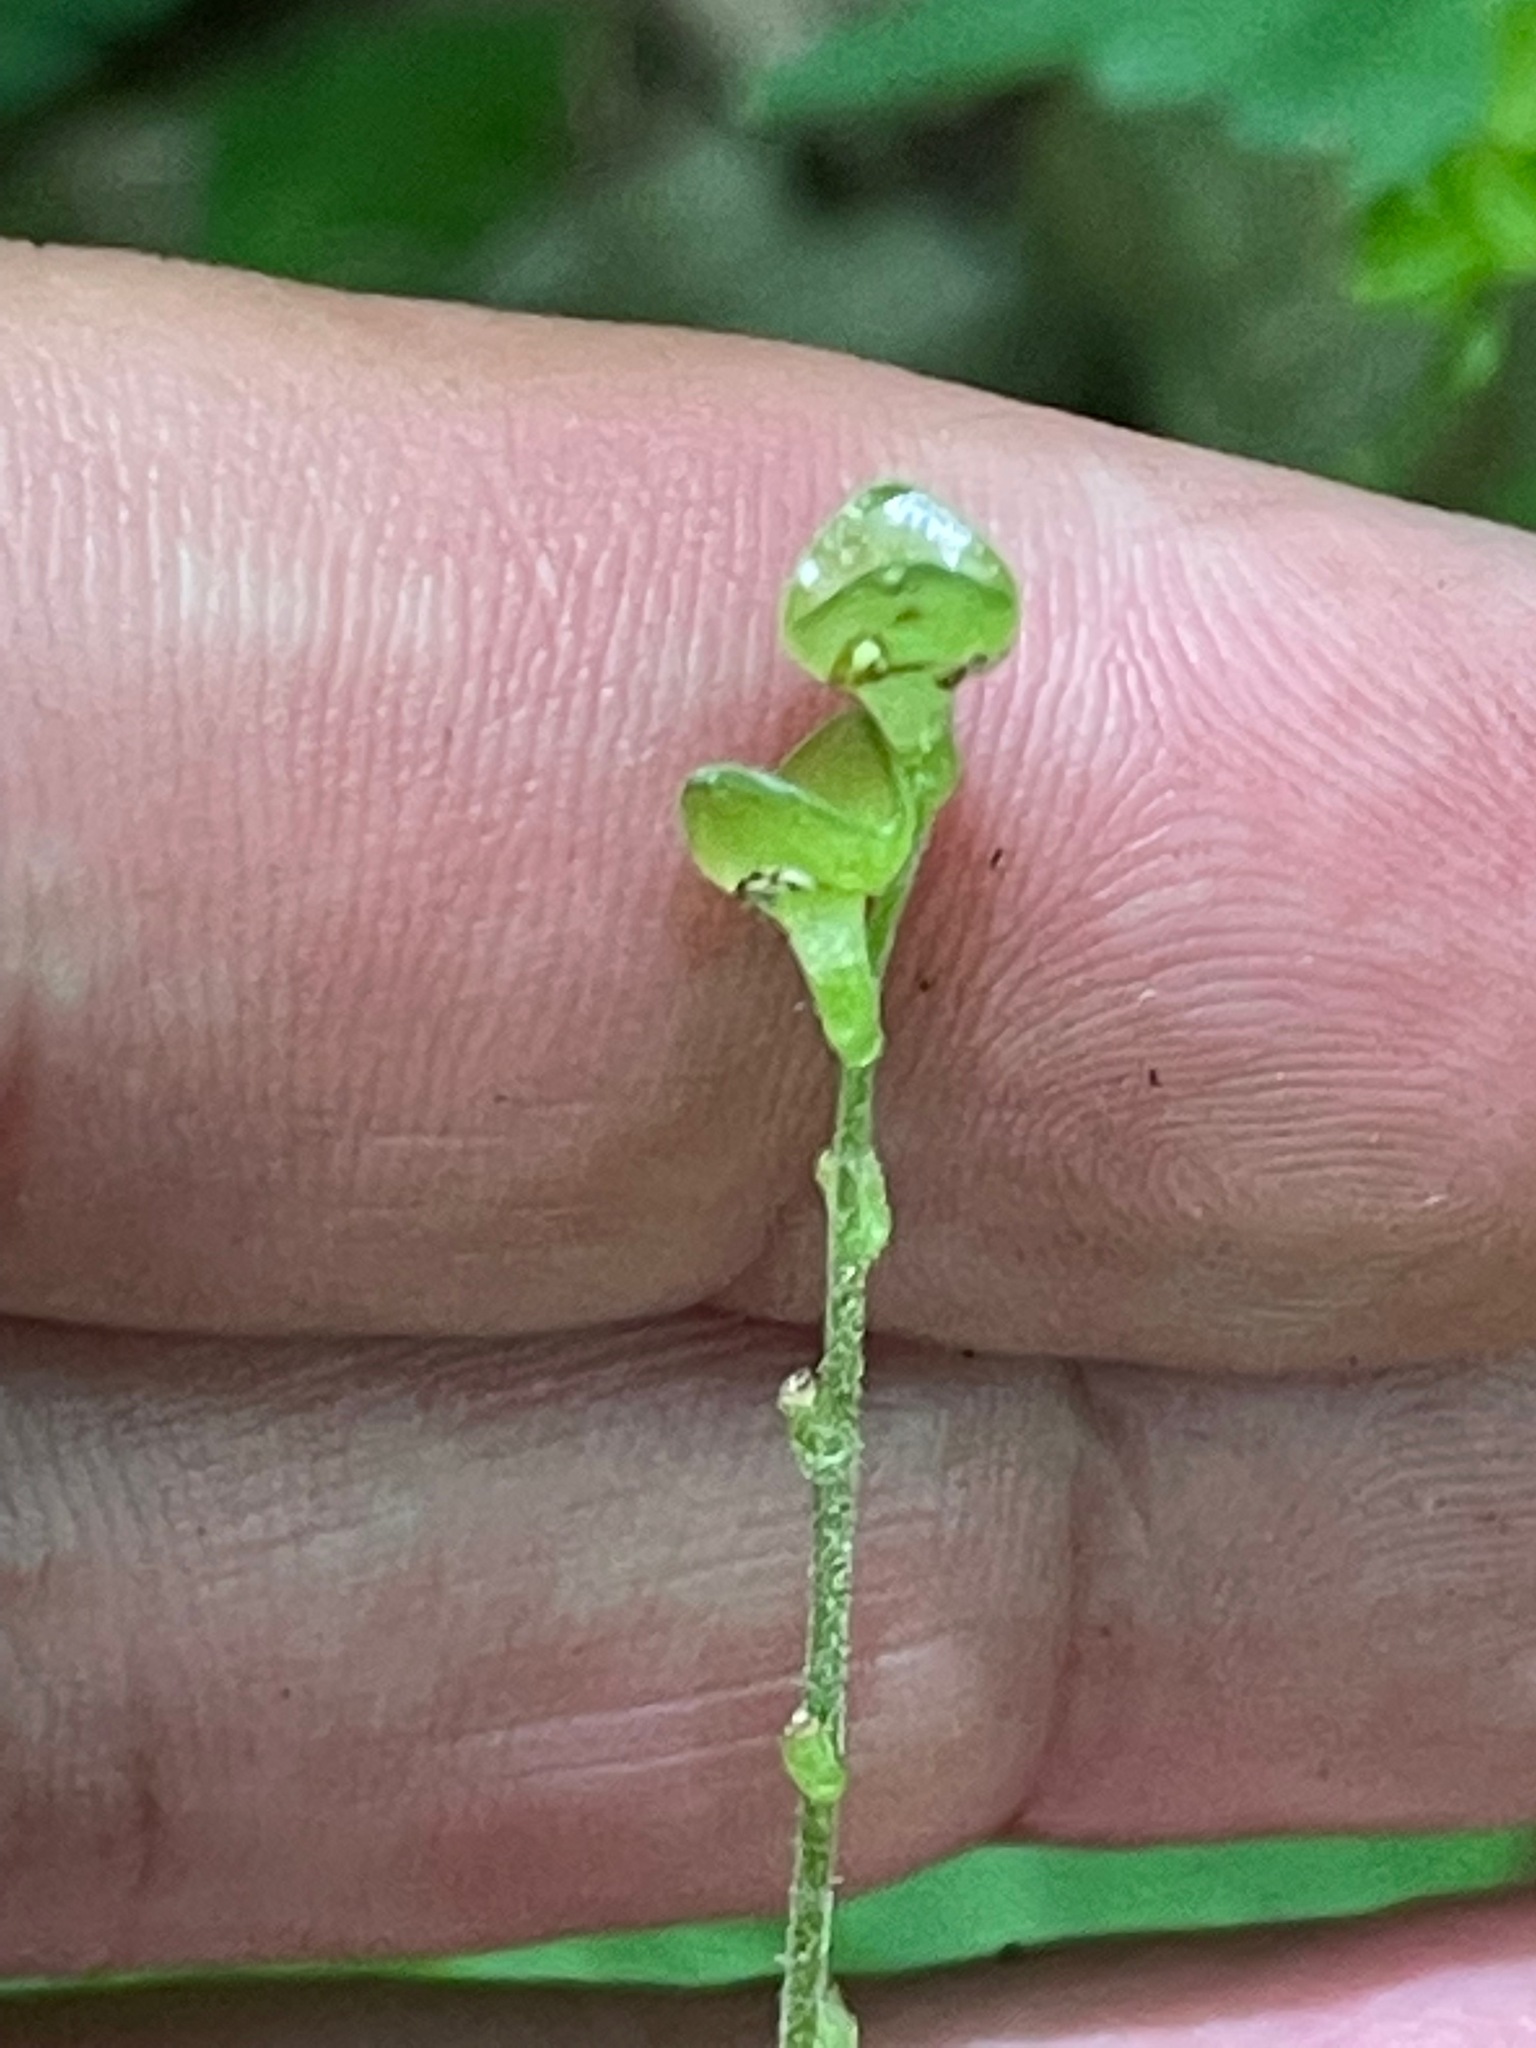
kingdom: Plantae
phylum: Tracheophyta
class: Magnoliopsida
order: Saxifragales
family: Saxifragaceae
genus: Mitella
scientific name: Mitella diphylla
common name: Coolwort
